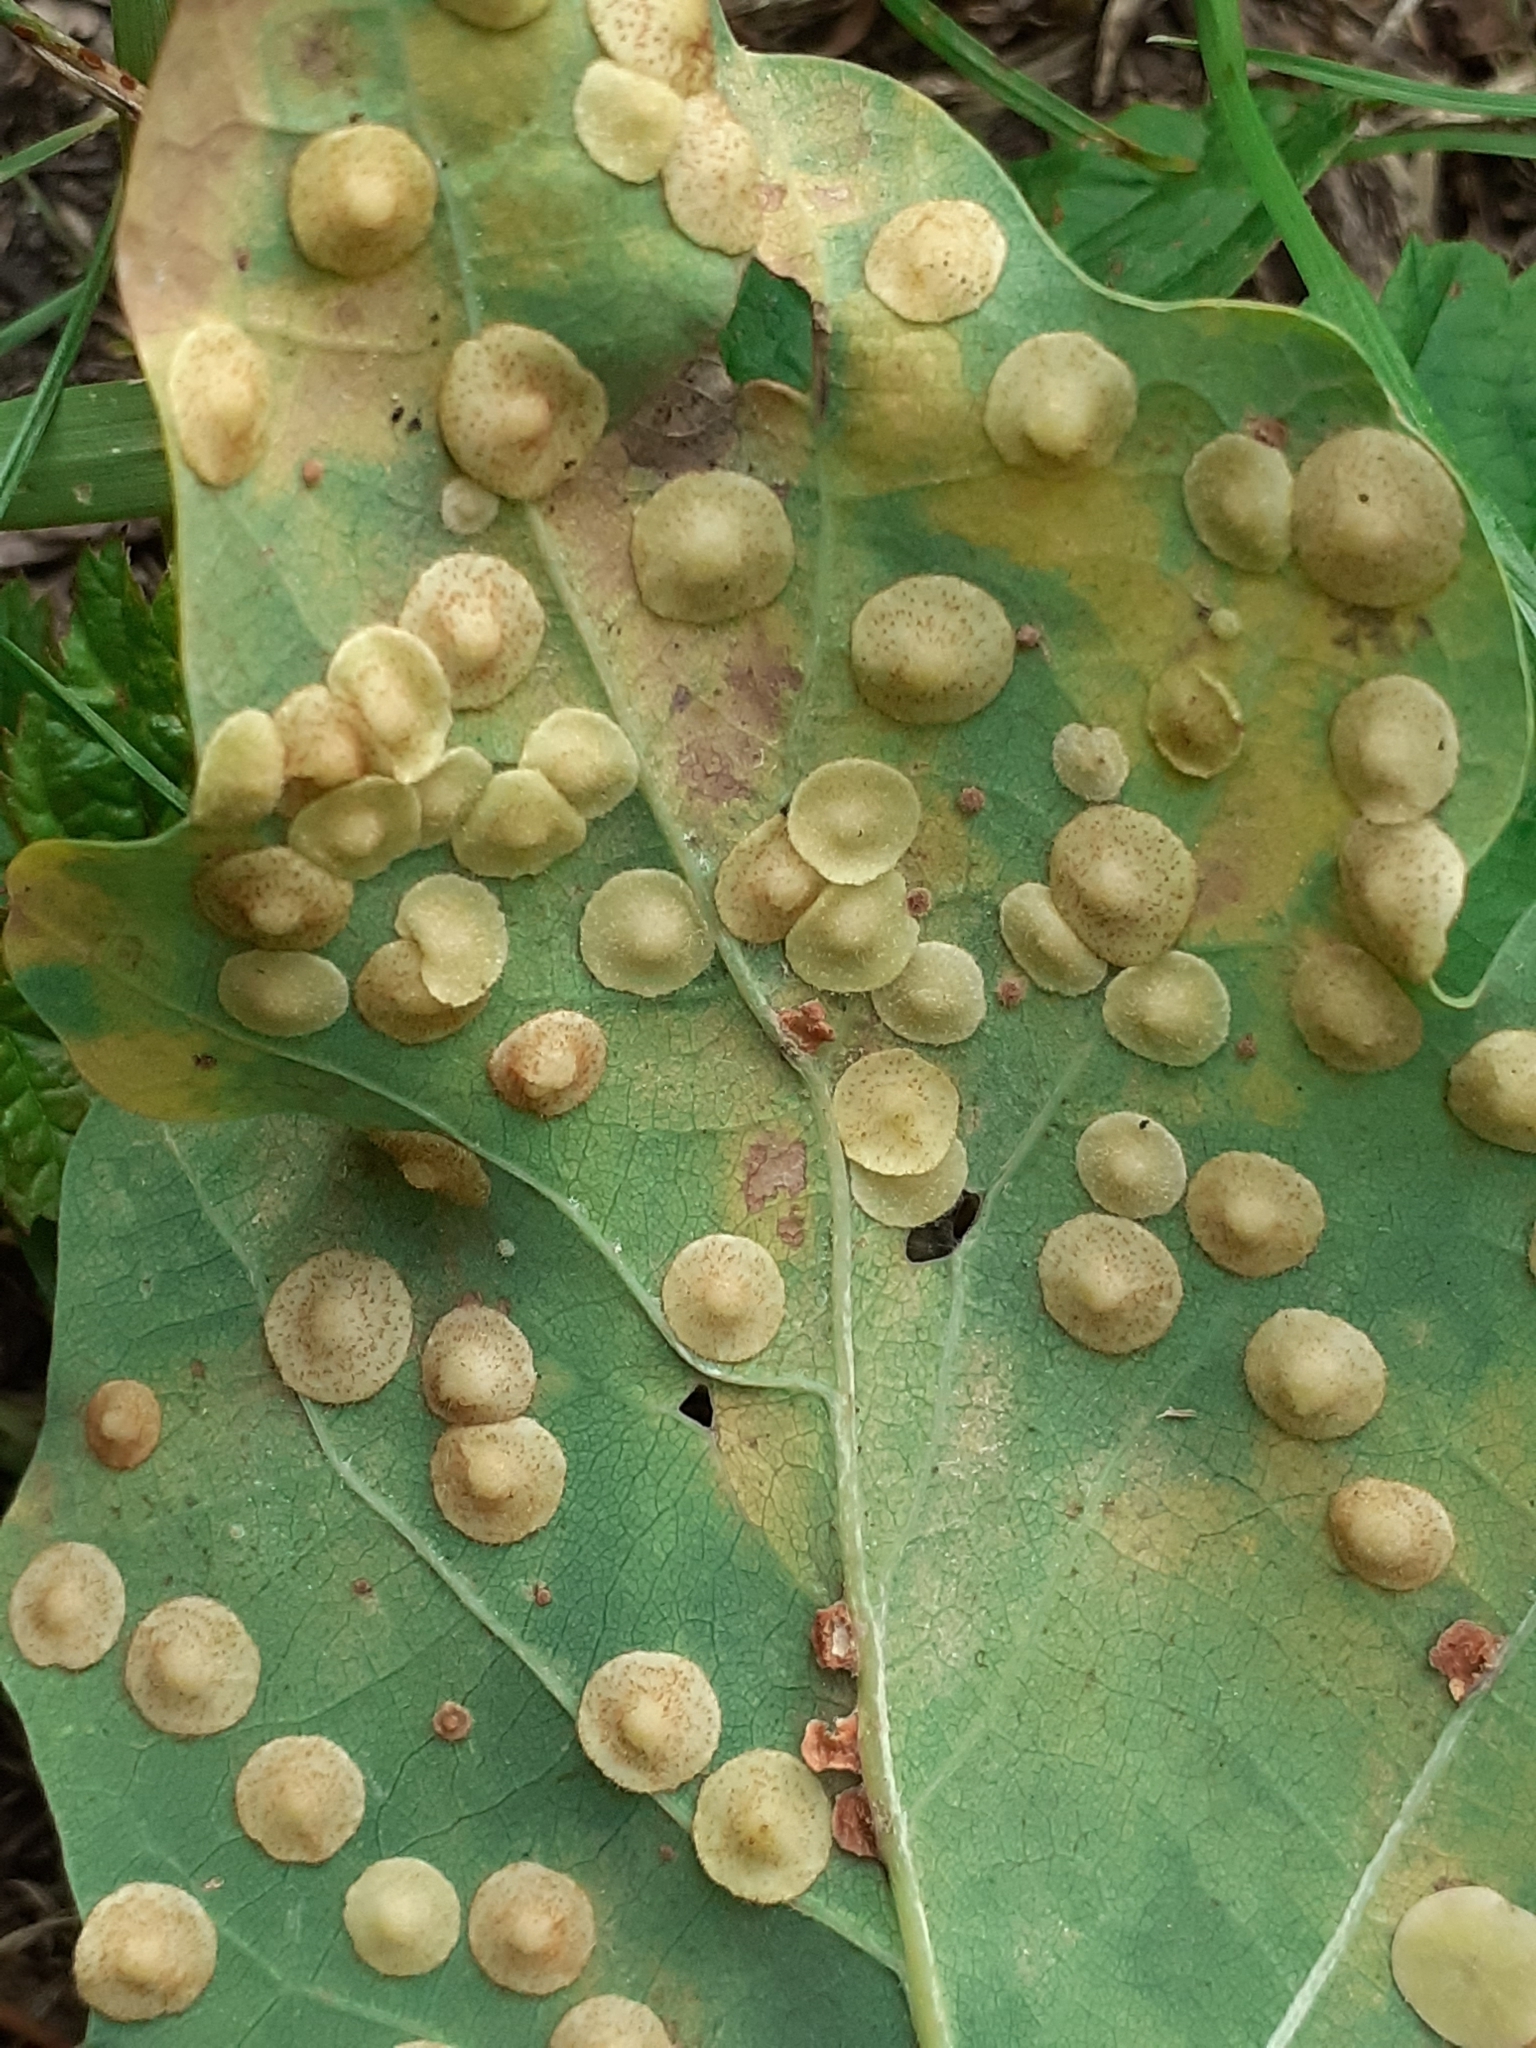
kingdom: Animalia
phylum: Arthropoda
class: Insecta
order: Hymenoptera
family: Cynipidae
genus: Neuroterus
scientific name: Neuroterus quercusbaccarum
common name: Common spangle gall
